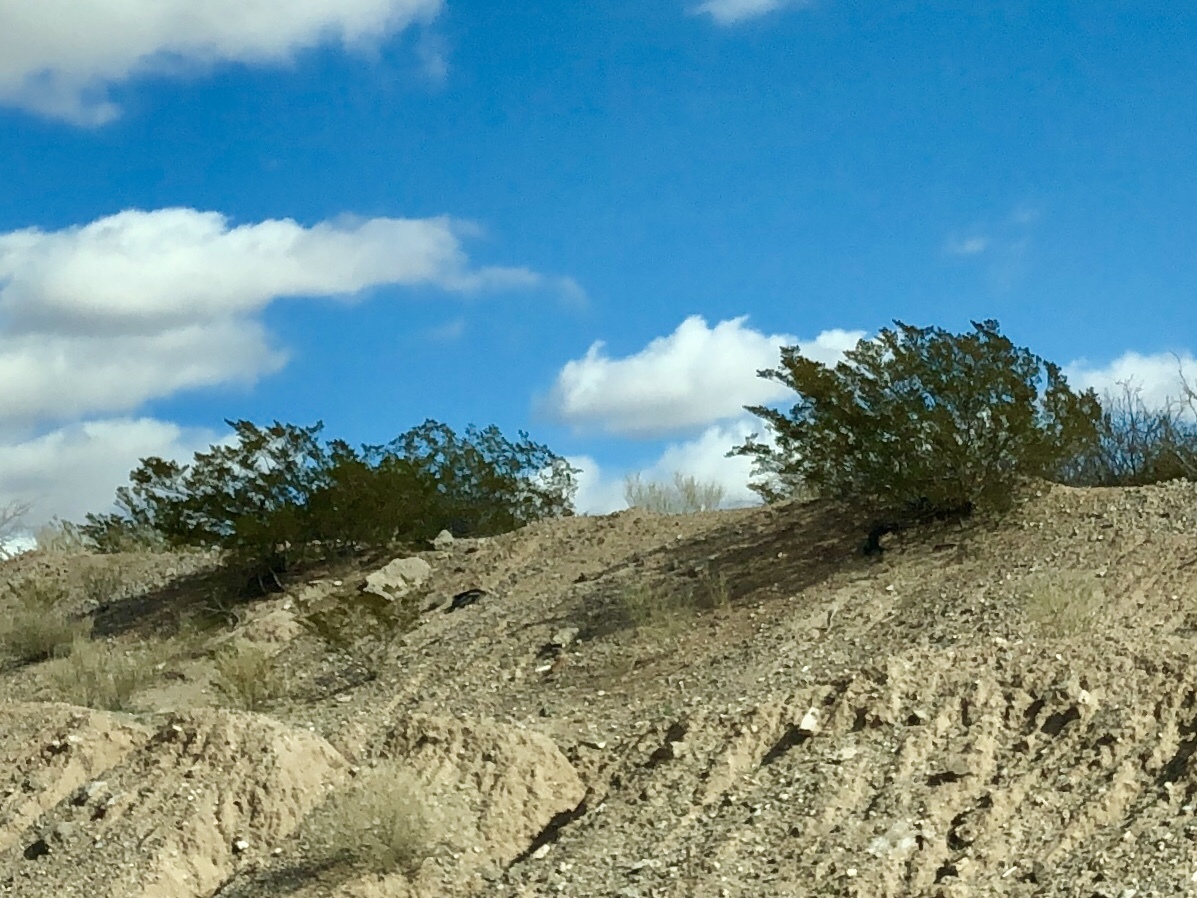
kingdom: Plantae
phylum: Tracheophyta
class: Magnoliopsida
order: Zygophyllales
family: Zygophyllaceae
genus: Larrea
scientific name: Larrea tridentata
